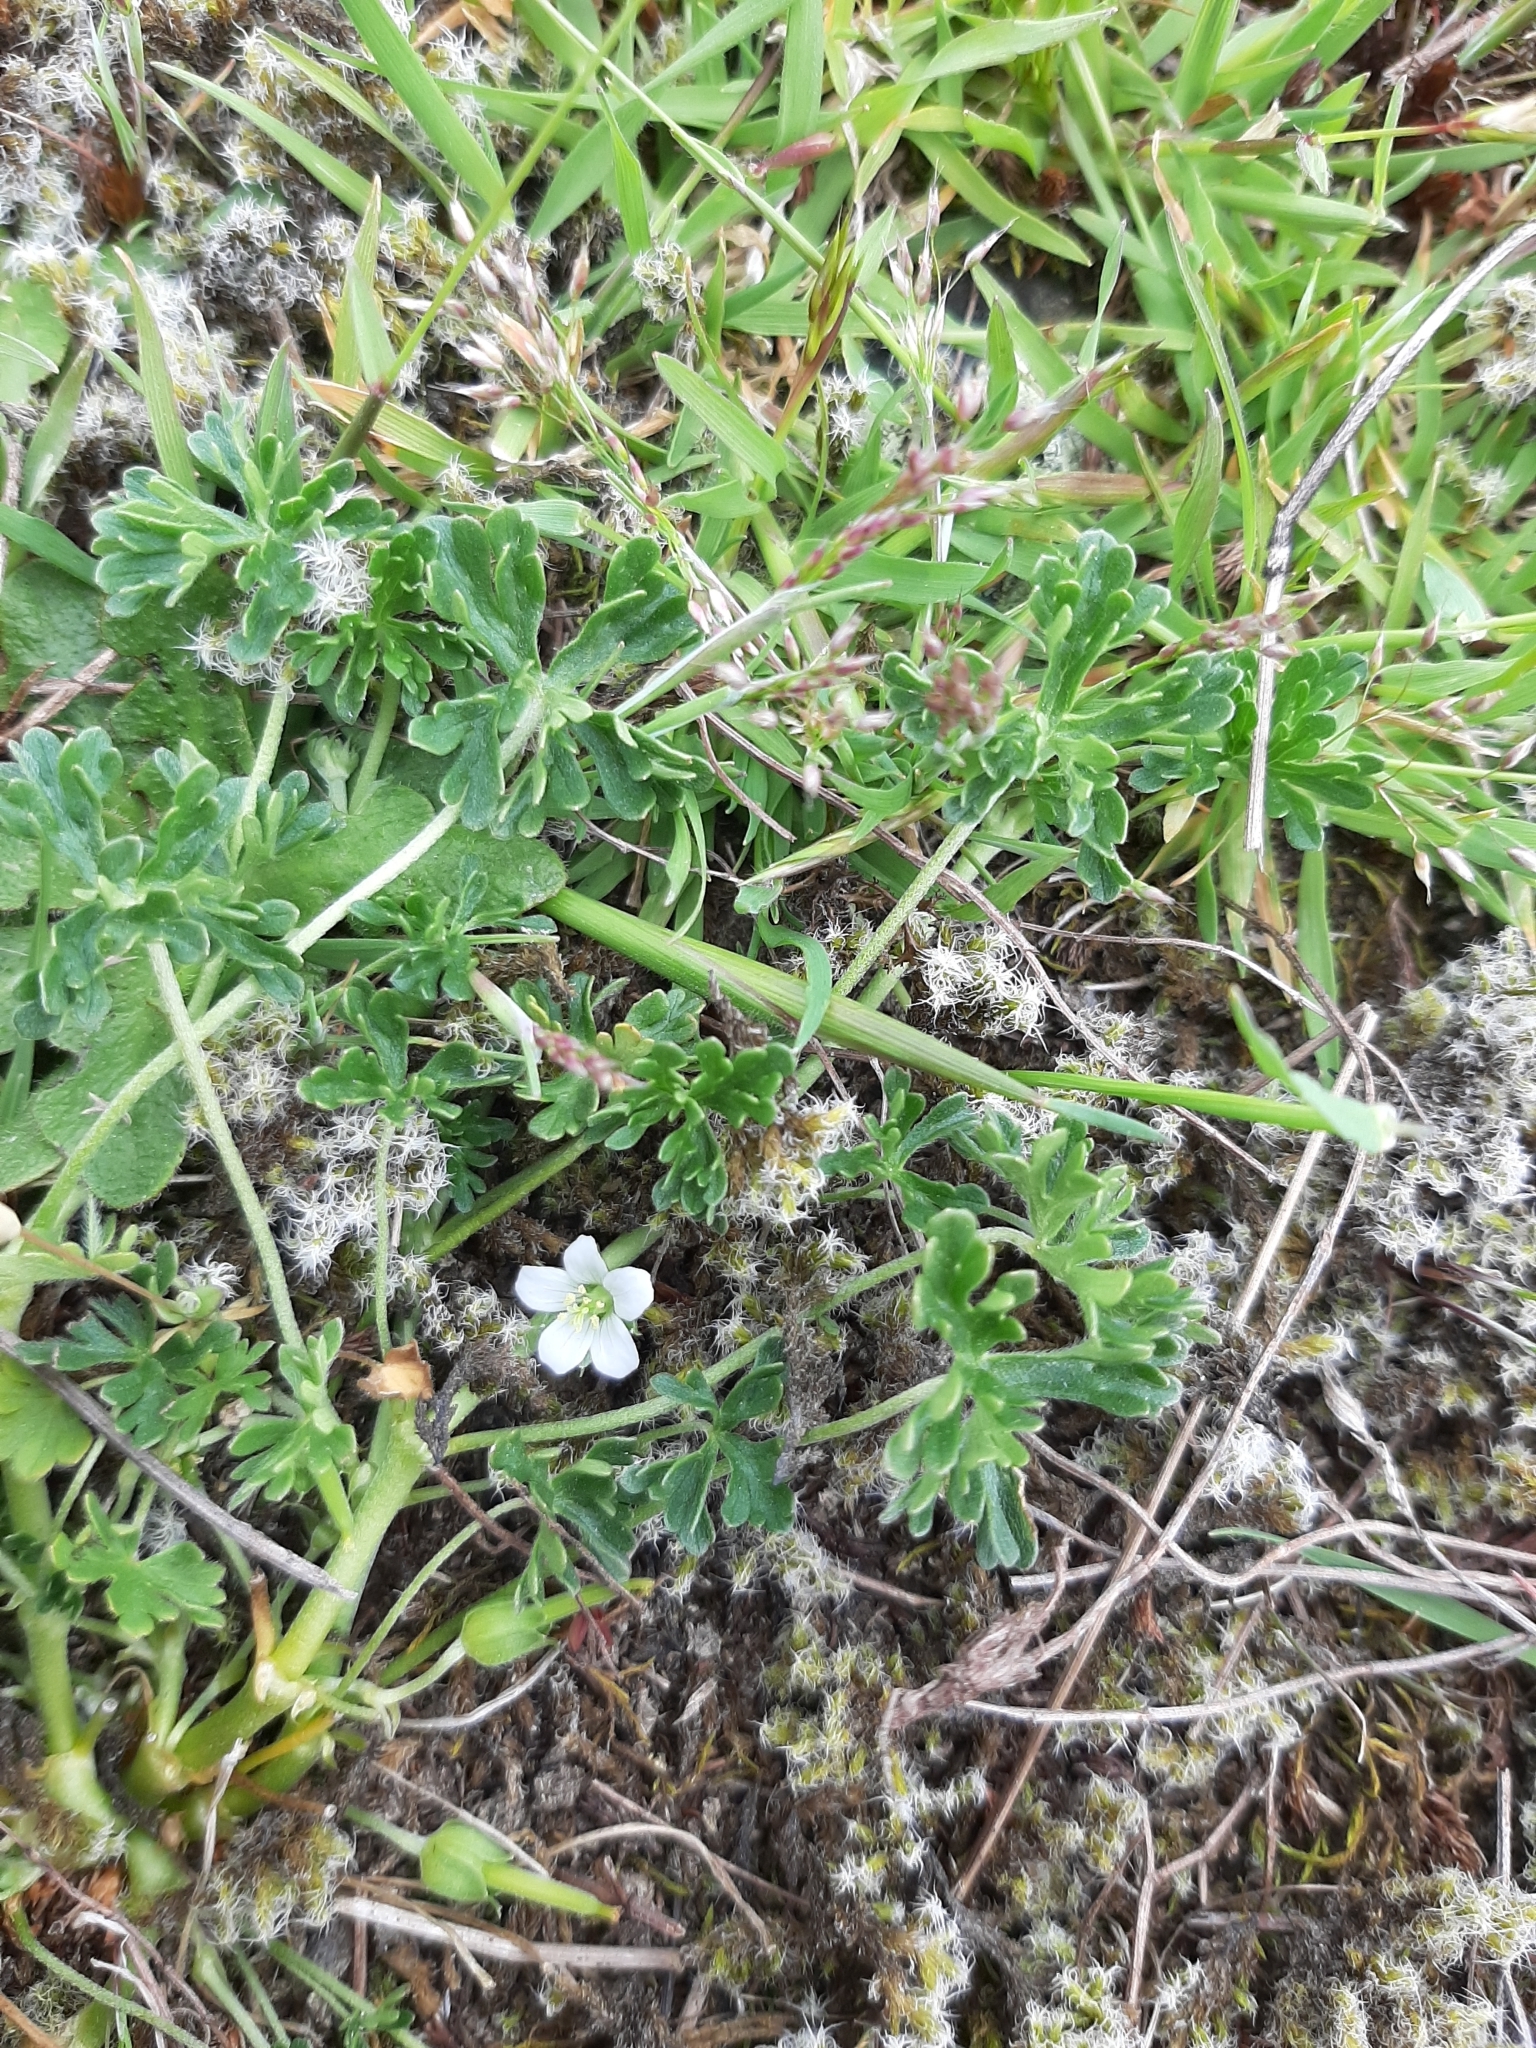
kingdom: Plantae
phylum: Tracheophyta
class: Magnoliopsida
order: Geraniales
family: Geraniaceae
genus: Geranium
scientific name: Geranium retrorsum
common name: New zealand geranium
